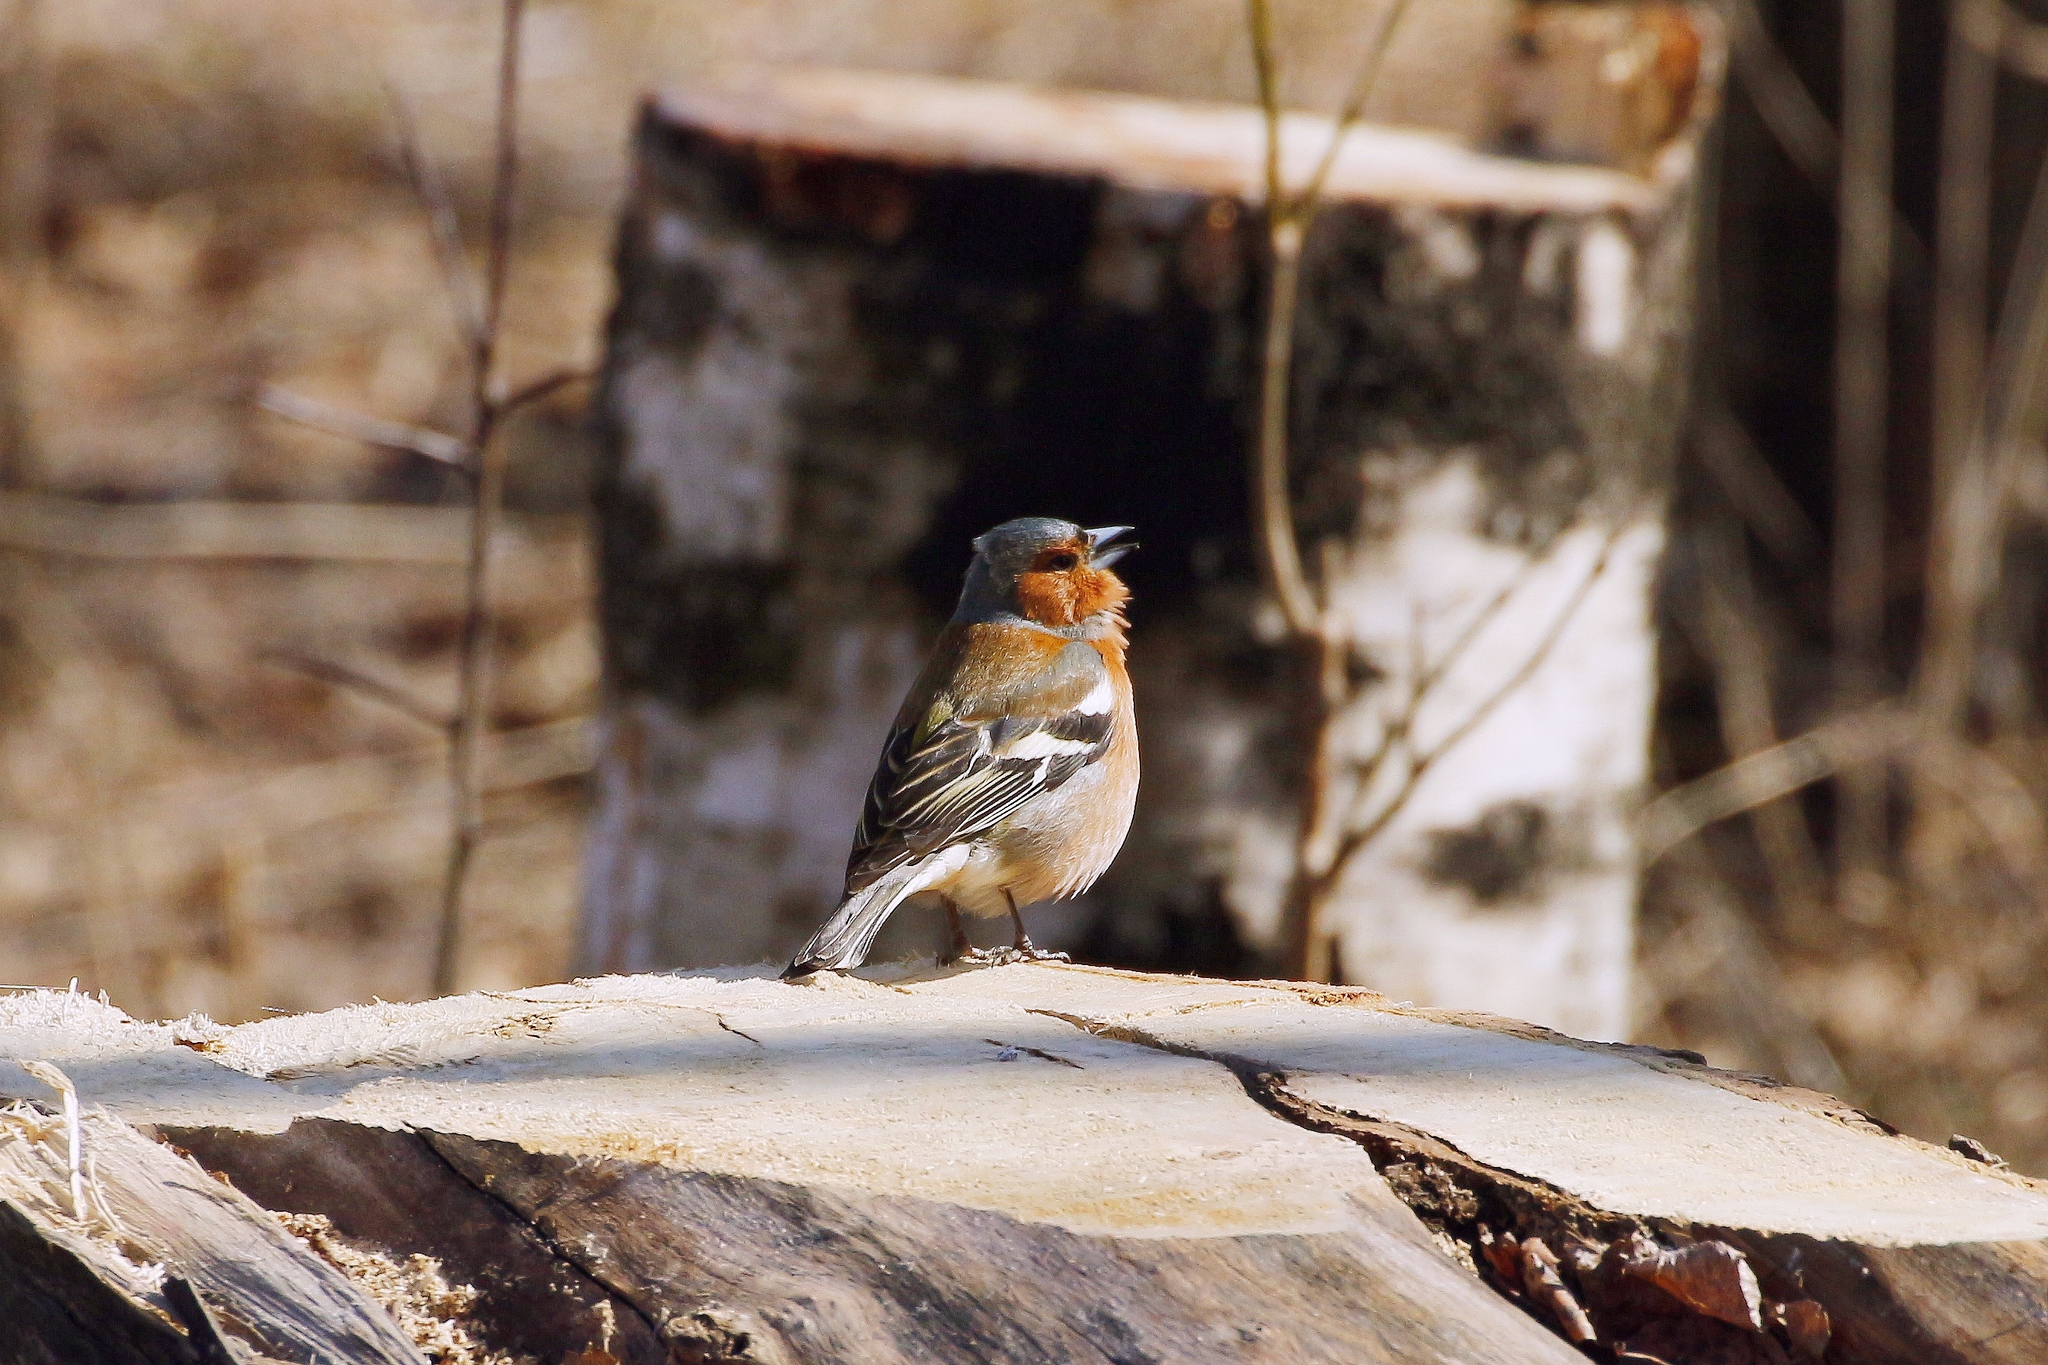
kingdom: Animalia
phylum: Chordata
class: Aves
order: Passeriformes
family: Fringillidae
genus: Fringilla
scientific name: Fringilla coelebs
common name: Common chaffinch
